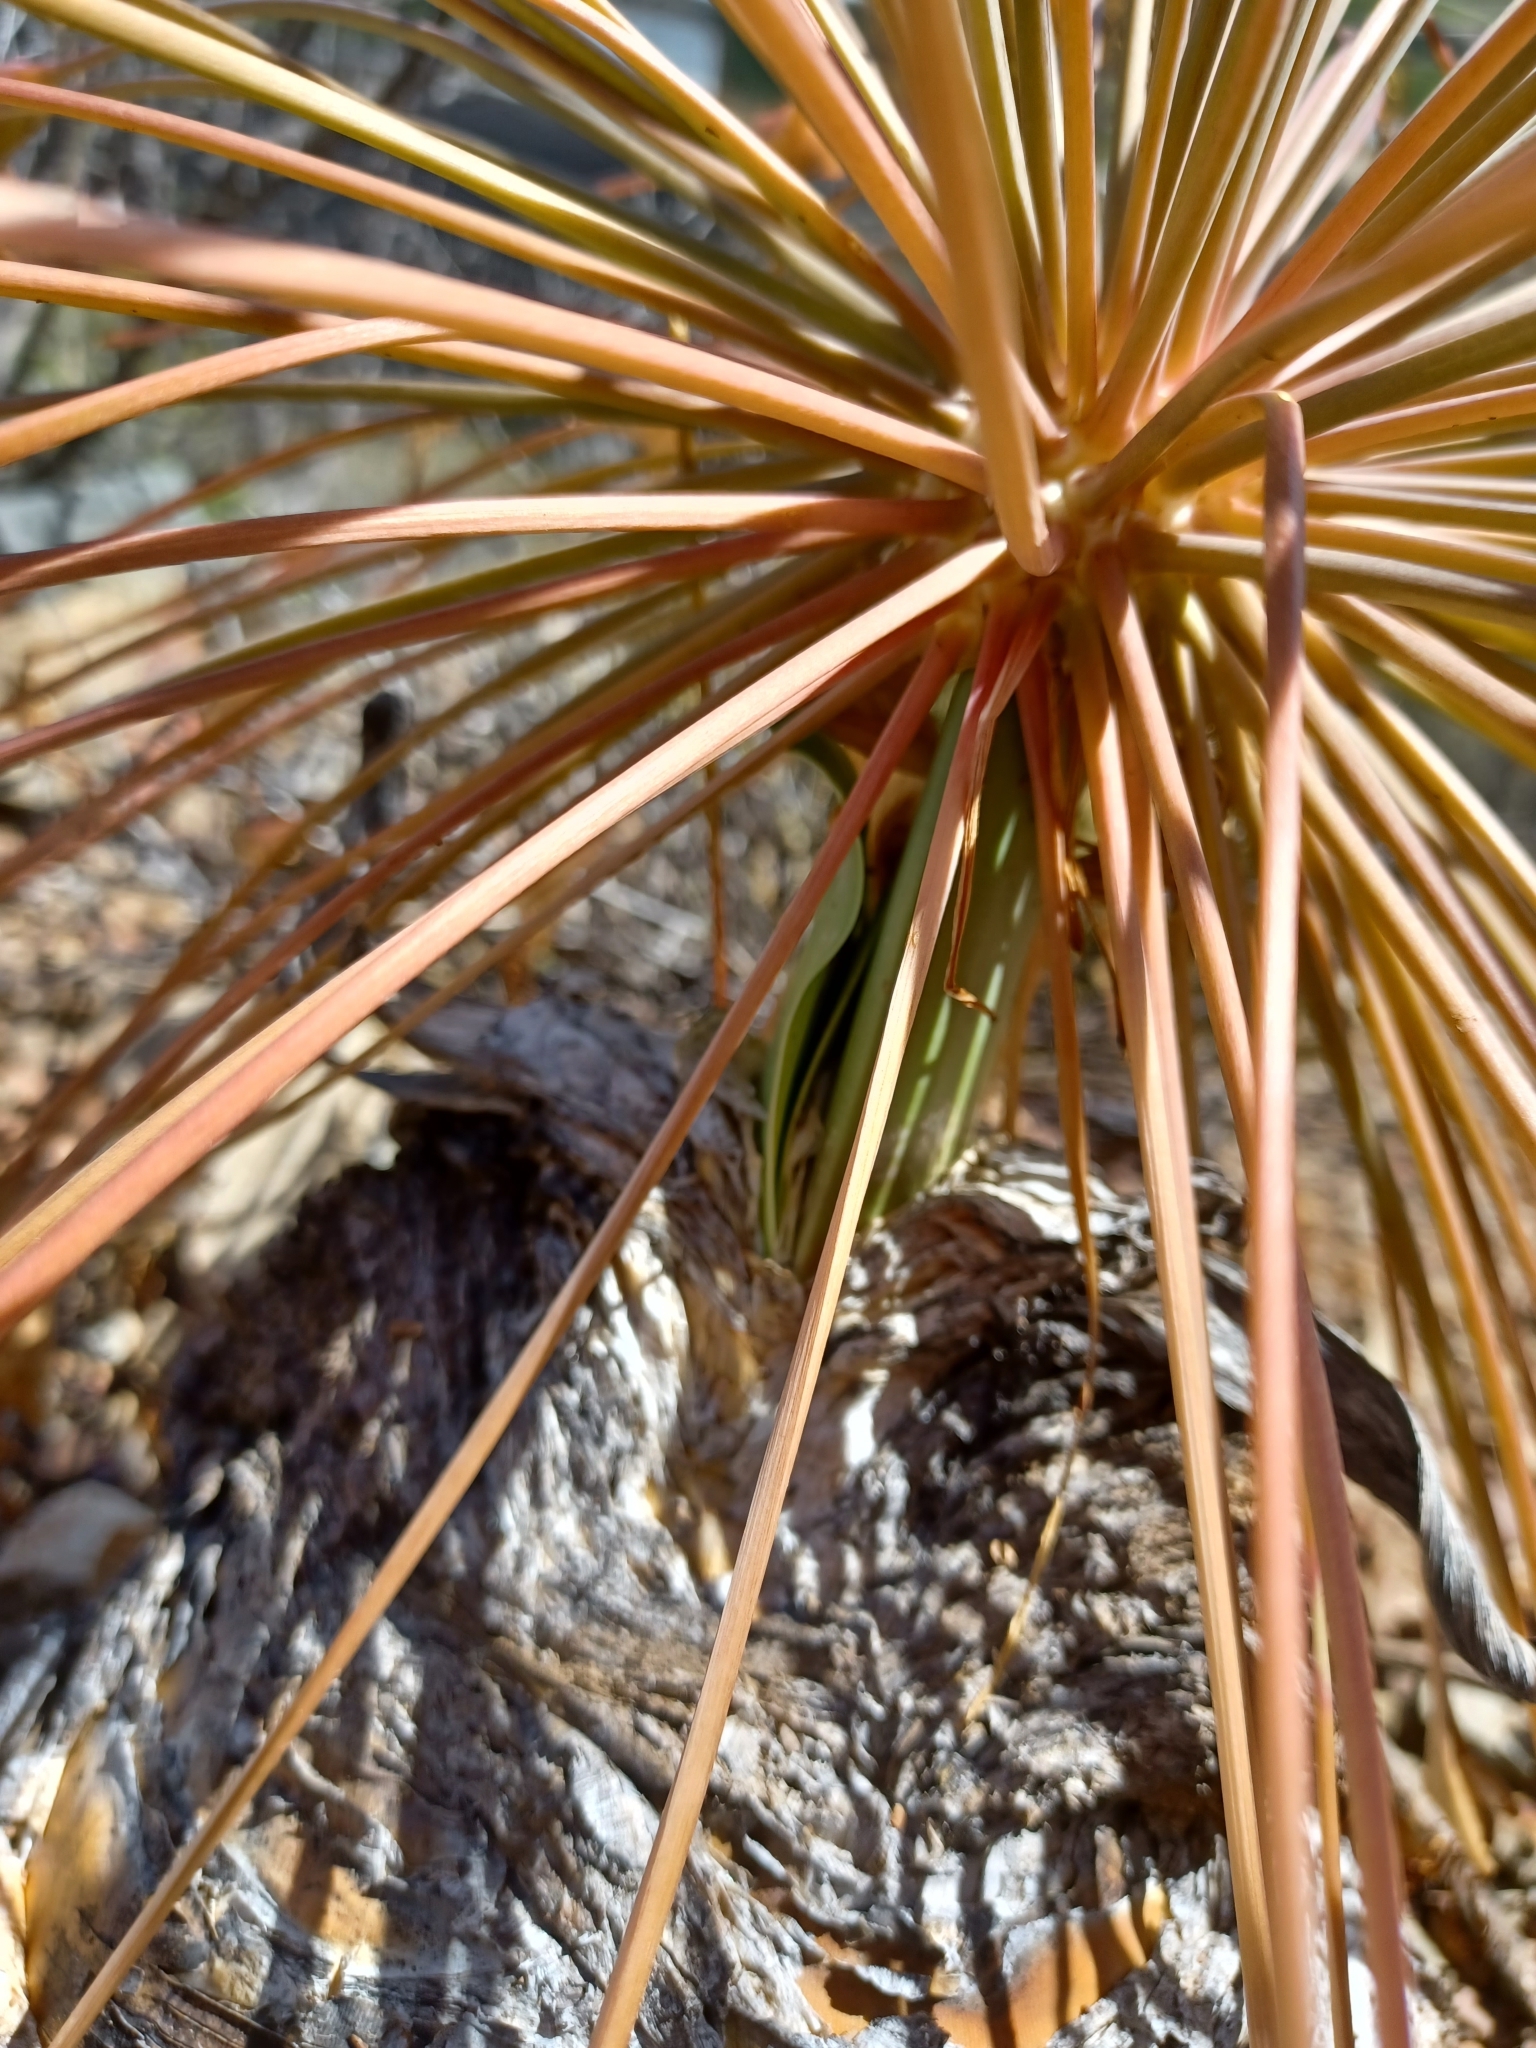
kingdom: Plantae
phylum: Tracheophyta
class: Liliopsida
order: Asparagales
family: Amaryllidaceae
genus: Boophone
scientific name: Boophone disticha
